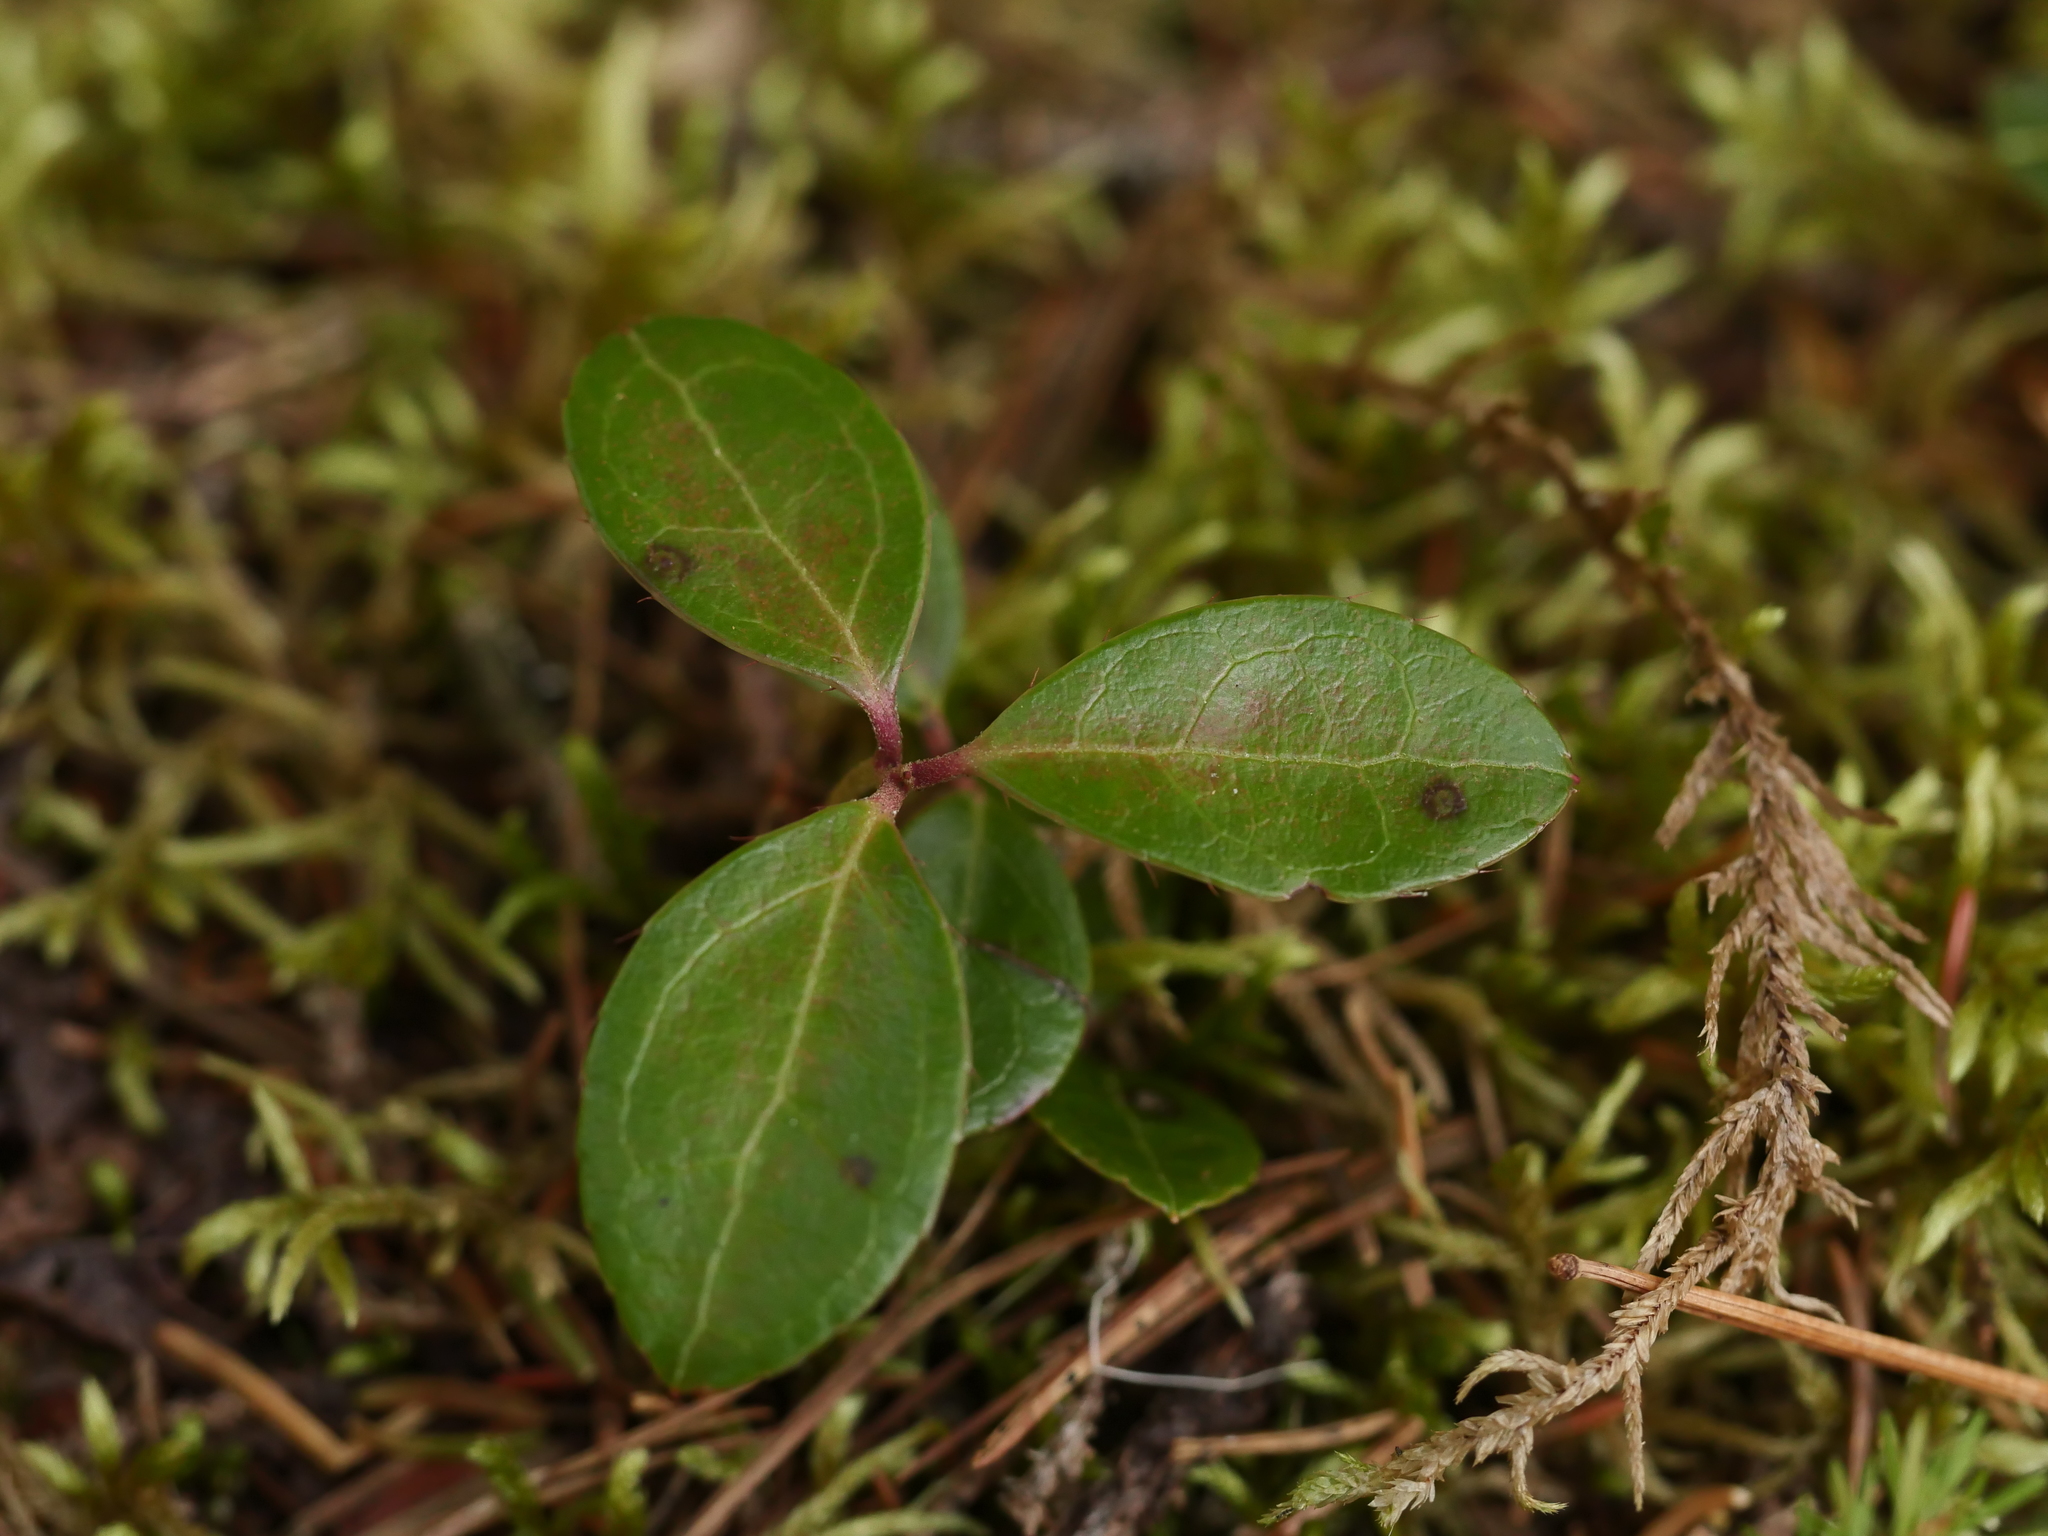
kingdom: Plantae
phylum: Tracheophyta
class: Magnoliopsida
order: Ericales
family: Ericaceae
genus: Gaultheria
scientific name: Gaultheria procumbens
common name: Checkerberry
